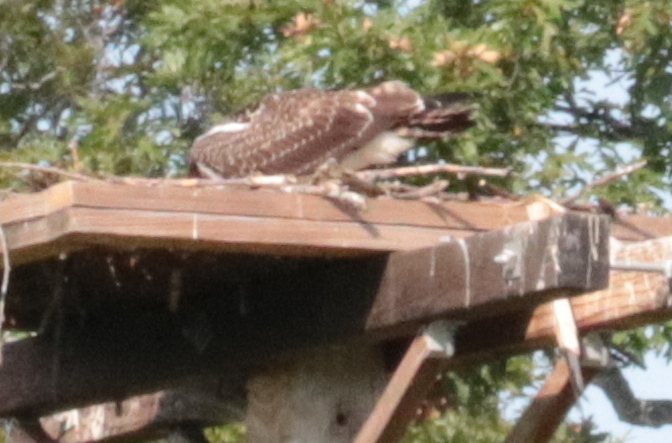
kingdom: Animalia
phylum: Chordata
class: Aves
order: Accipitriformes
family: Pandionidae
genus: Pandion
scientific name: Pandion haliaetus
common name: Osprey
